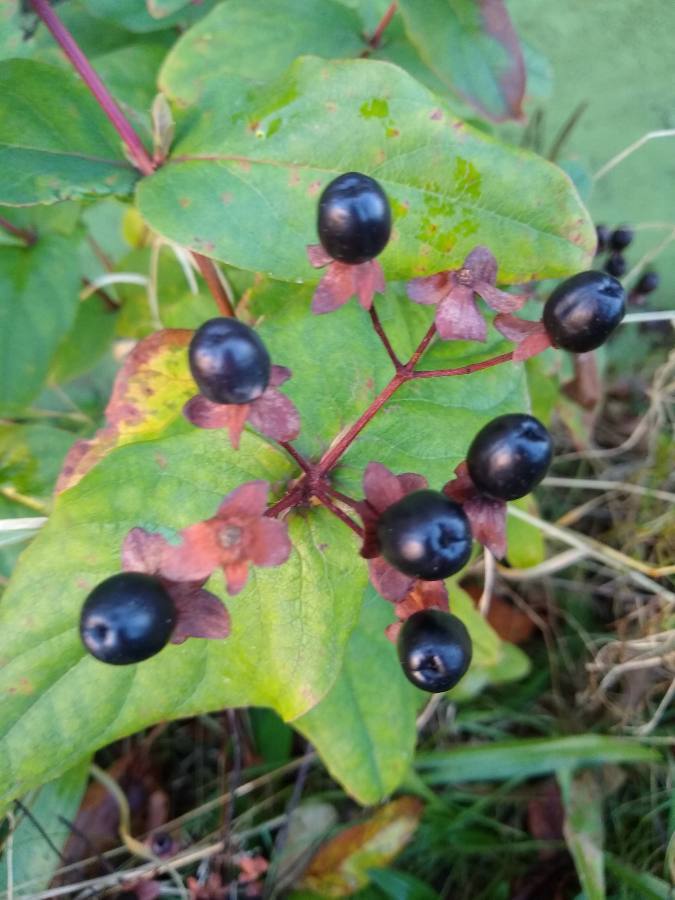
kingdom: Plantae
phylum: Tracheophyta
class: Magnoliopsida
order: Malpighiales
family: Hypericaceae
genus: Hypericum
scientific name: Hypericum androsaemum
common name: Sweet-amber
